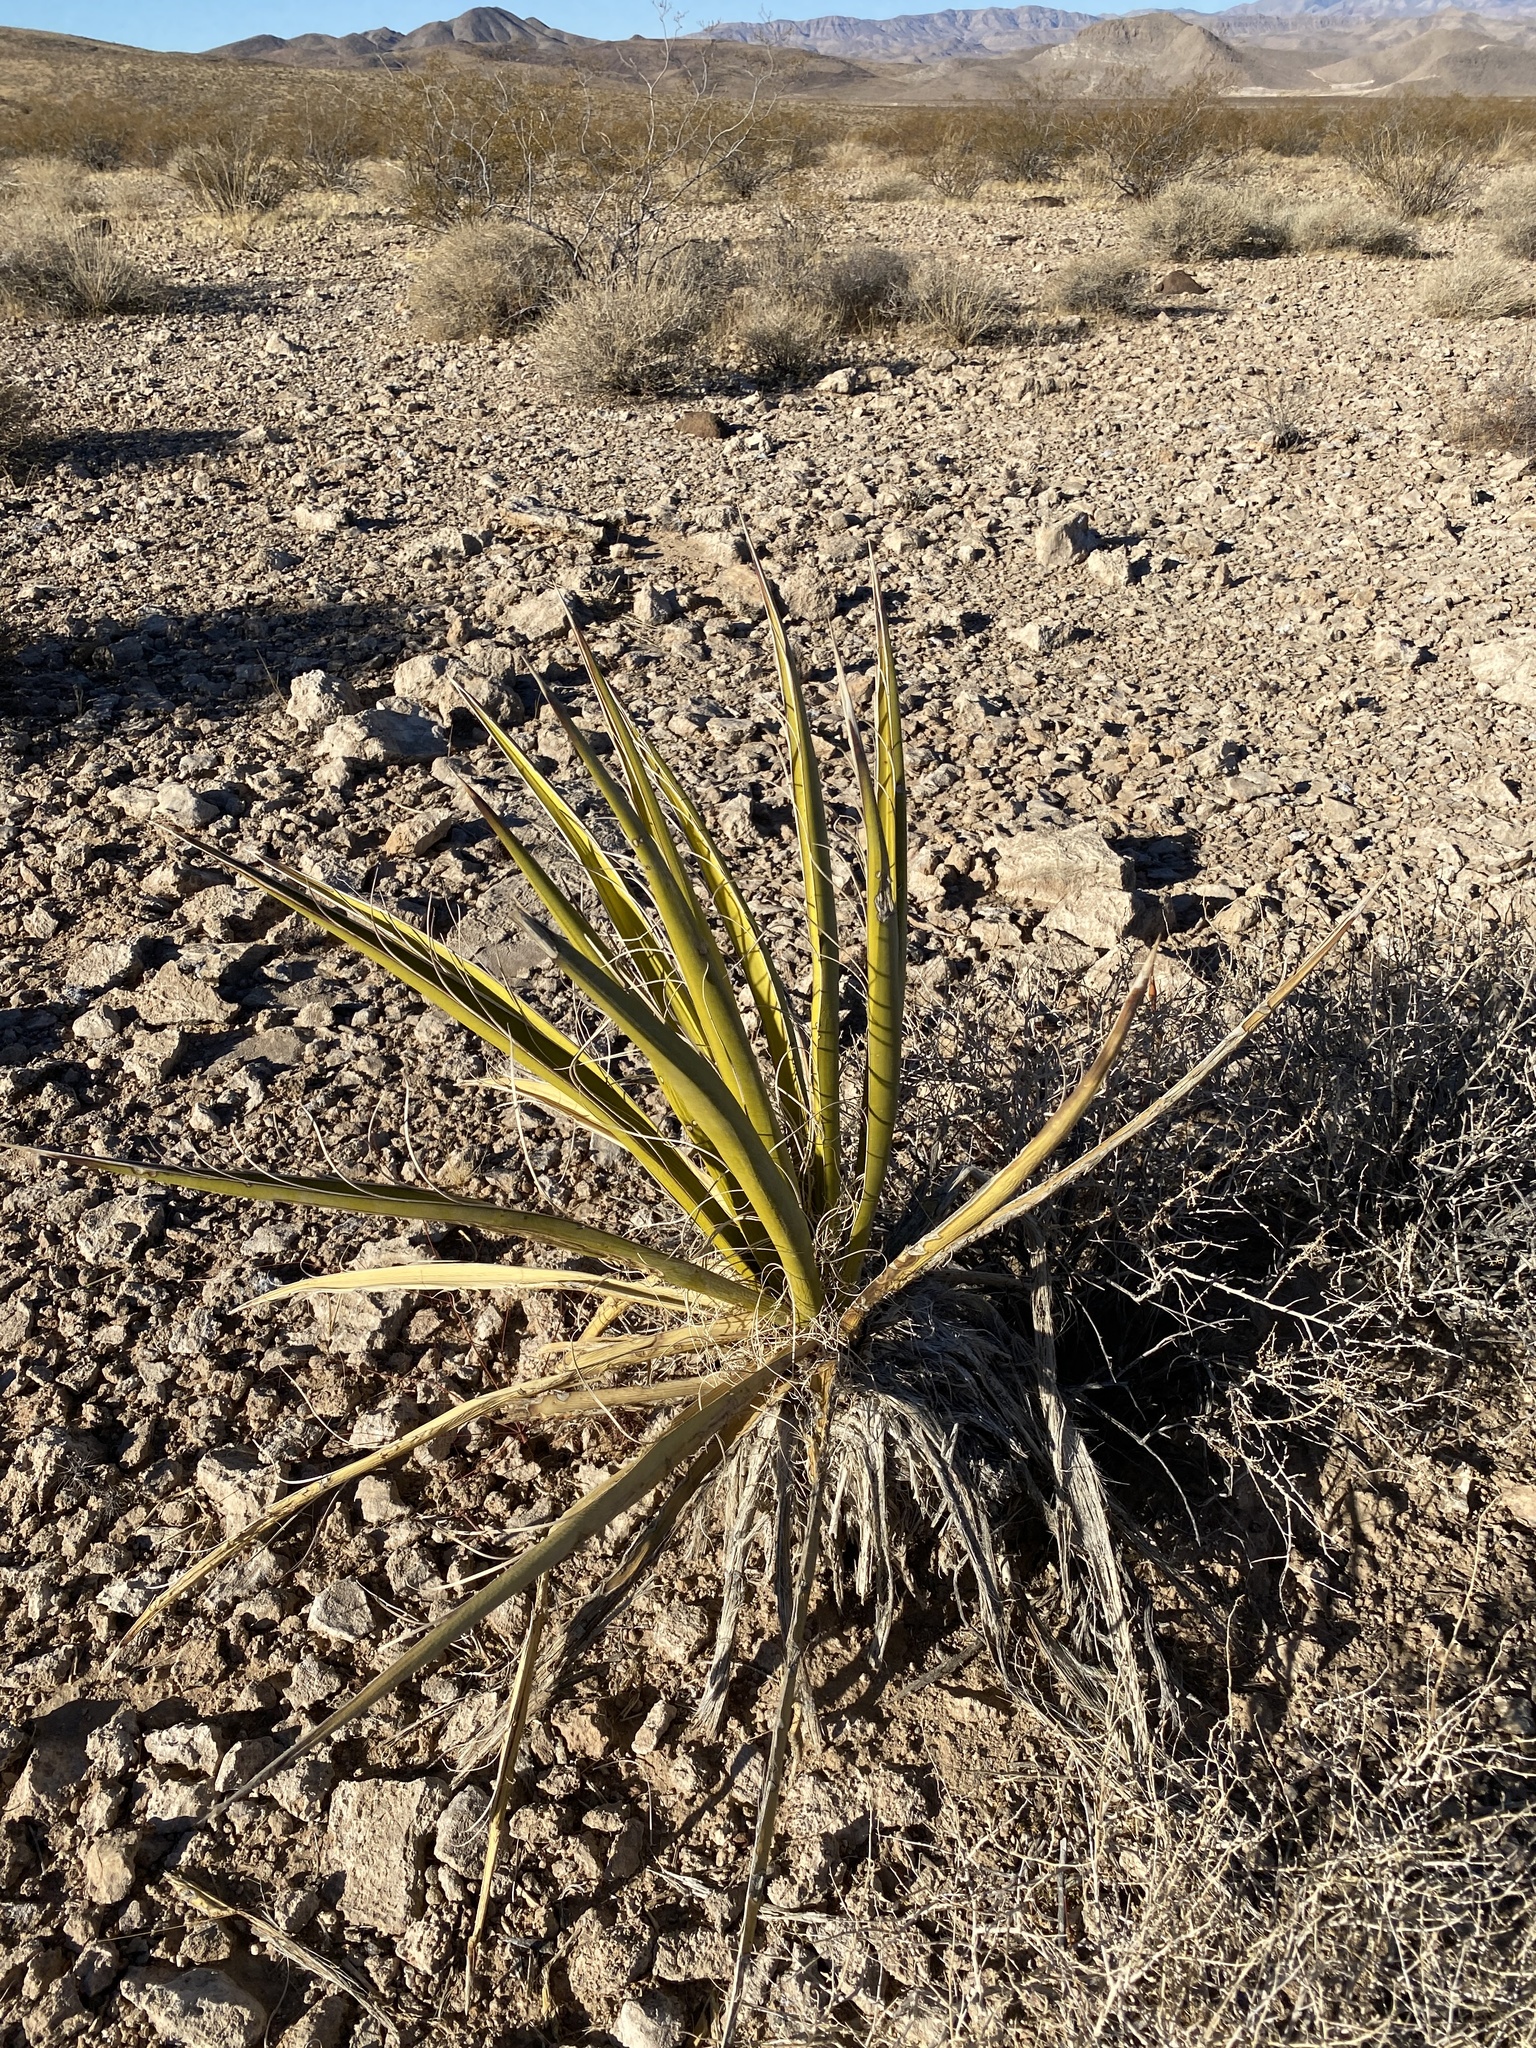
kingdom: Plantae
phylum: Tracheophyta
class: Liliopsida
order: Asparagales
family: Asparagaceae
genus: Yucca
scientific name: Yucca schidigera
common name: Mojave yucca
